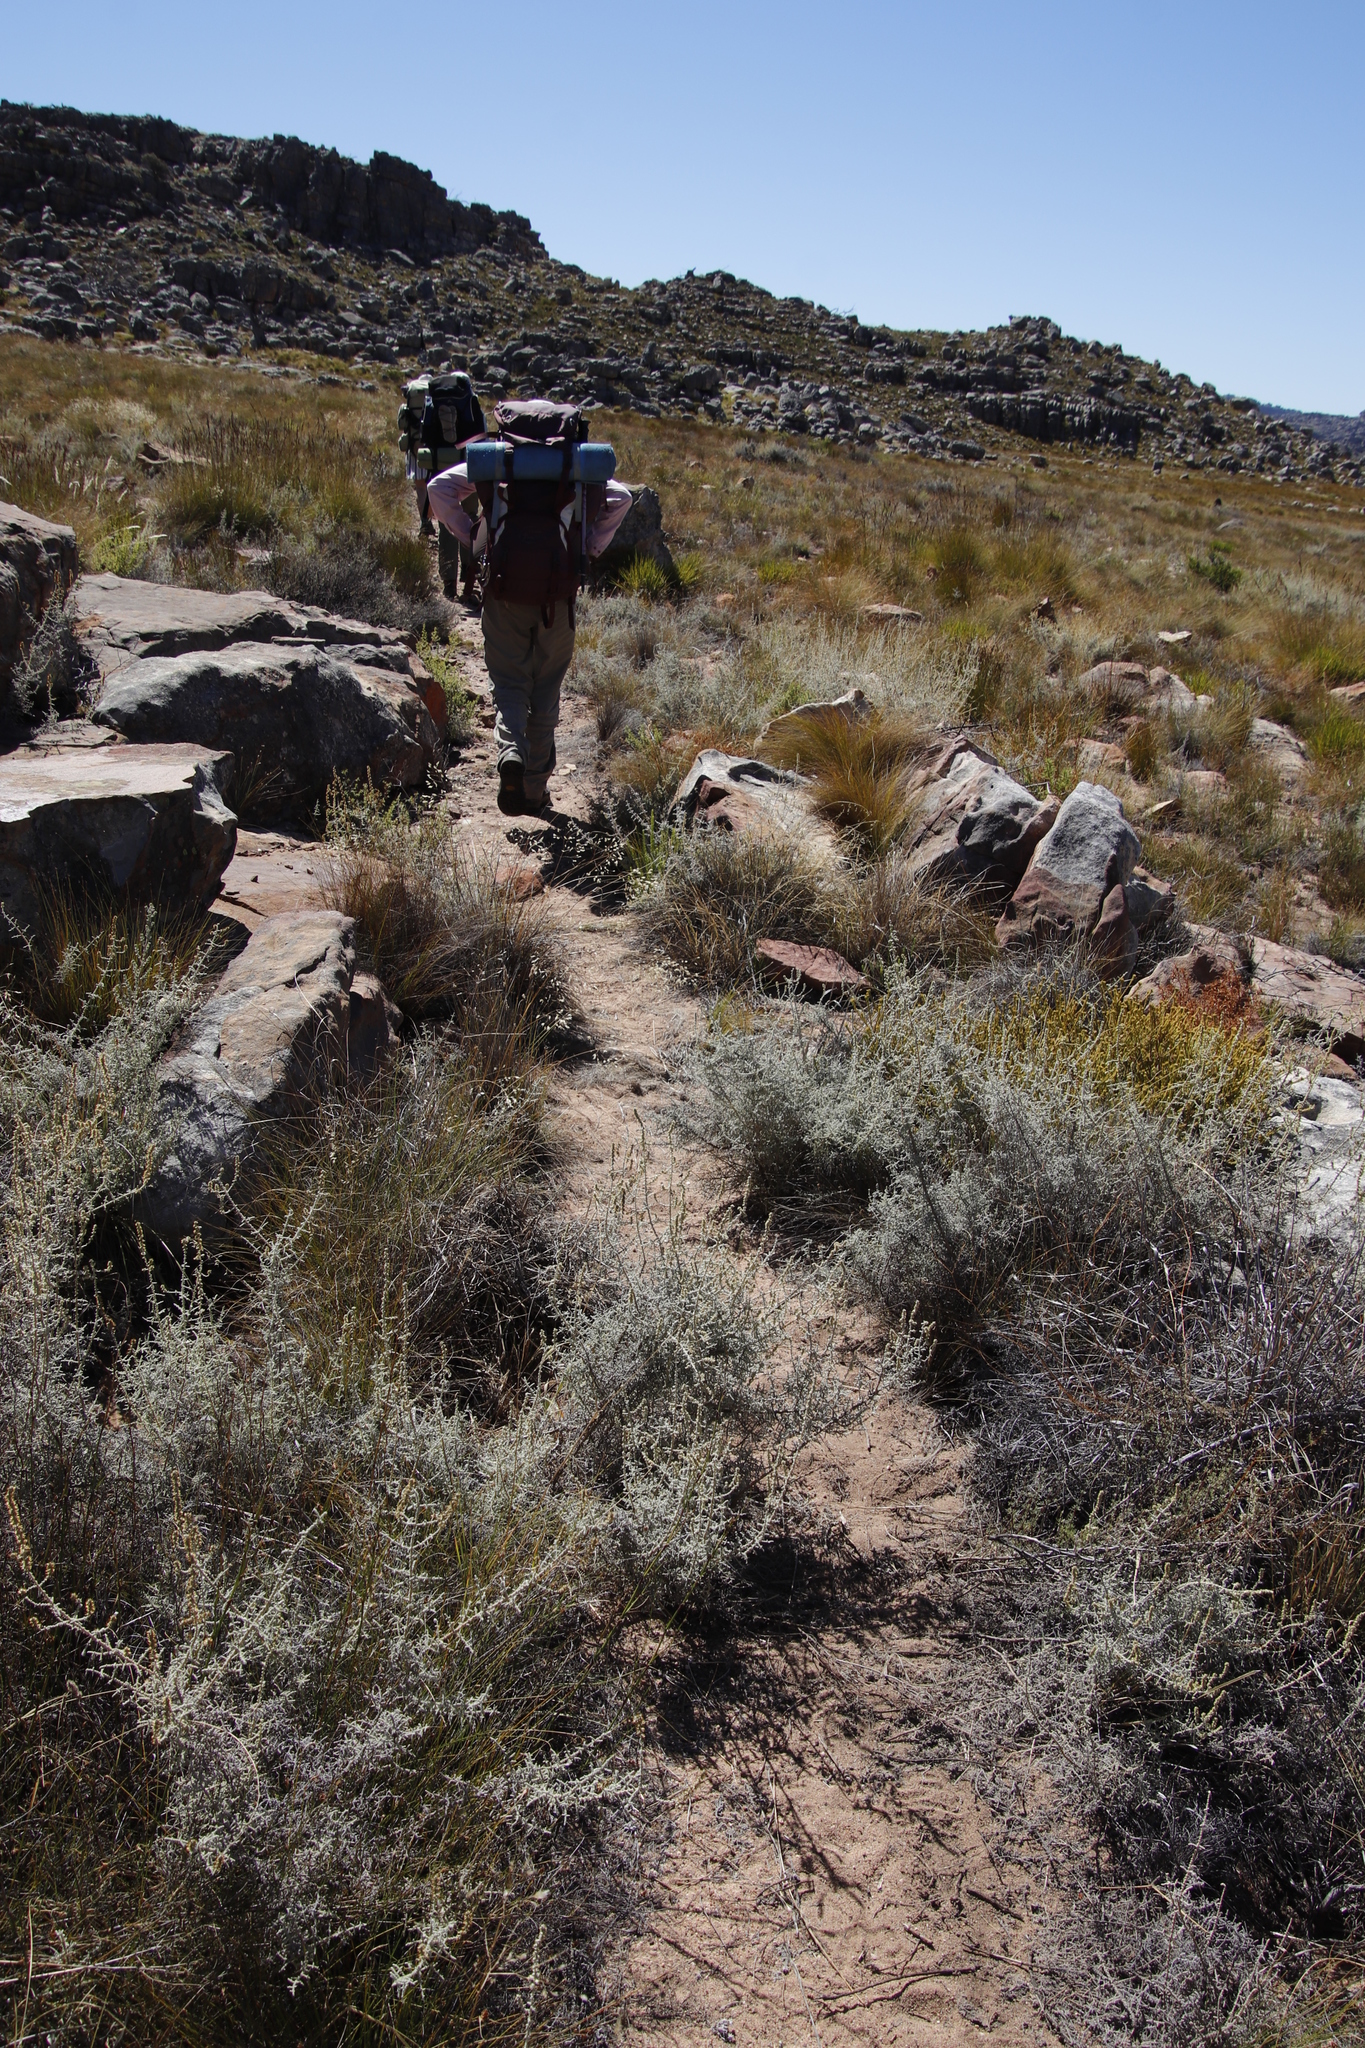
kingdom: Plantae
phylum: Tracheophyta
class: Magnoliopsida
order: Asterales
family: Asteraceae
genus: Seriphium
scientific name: Seriphium plumosum
